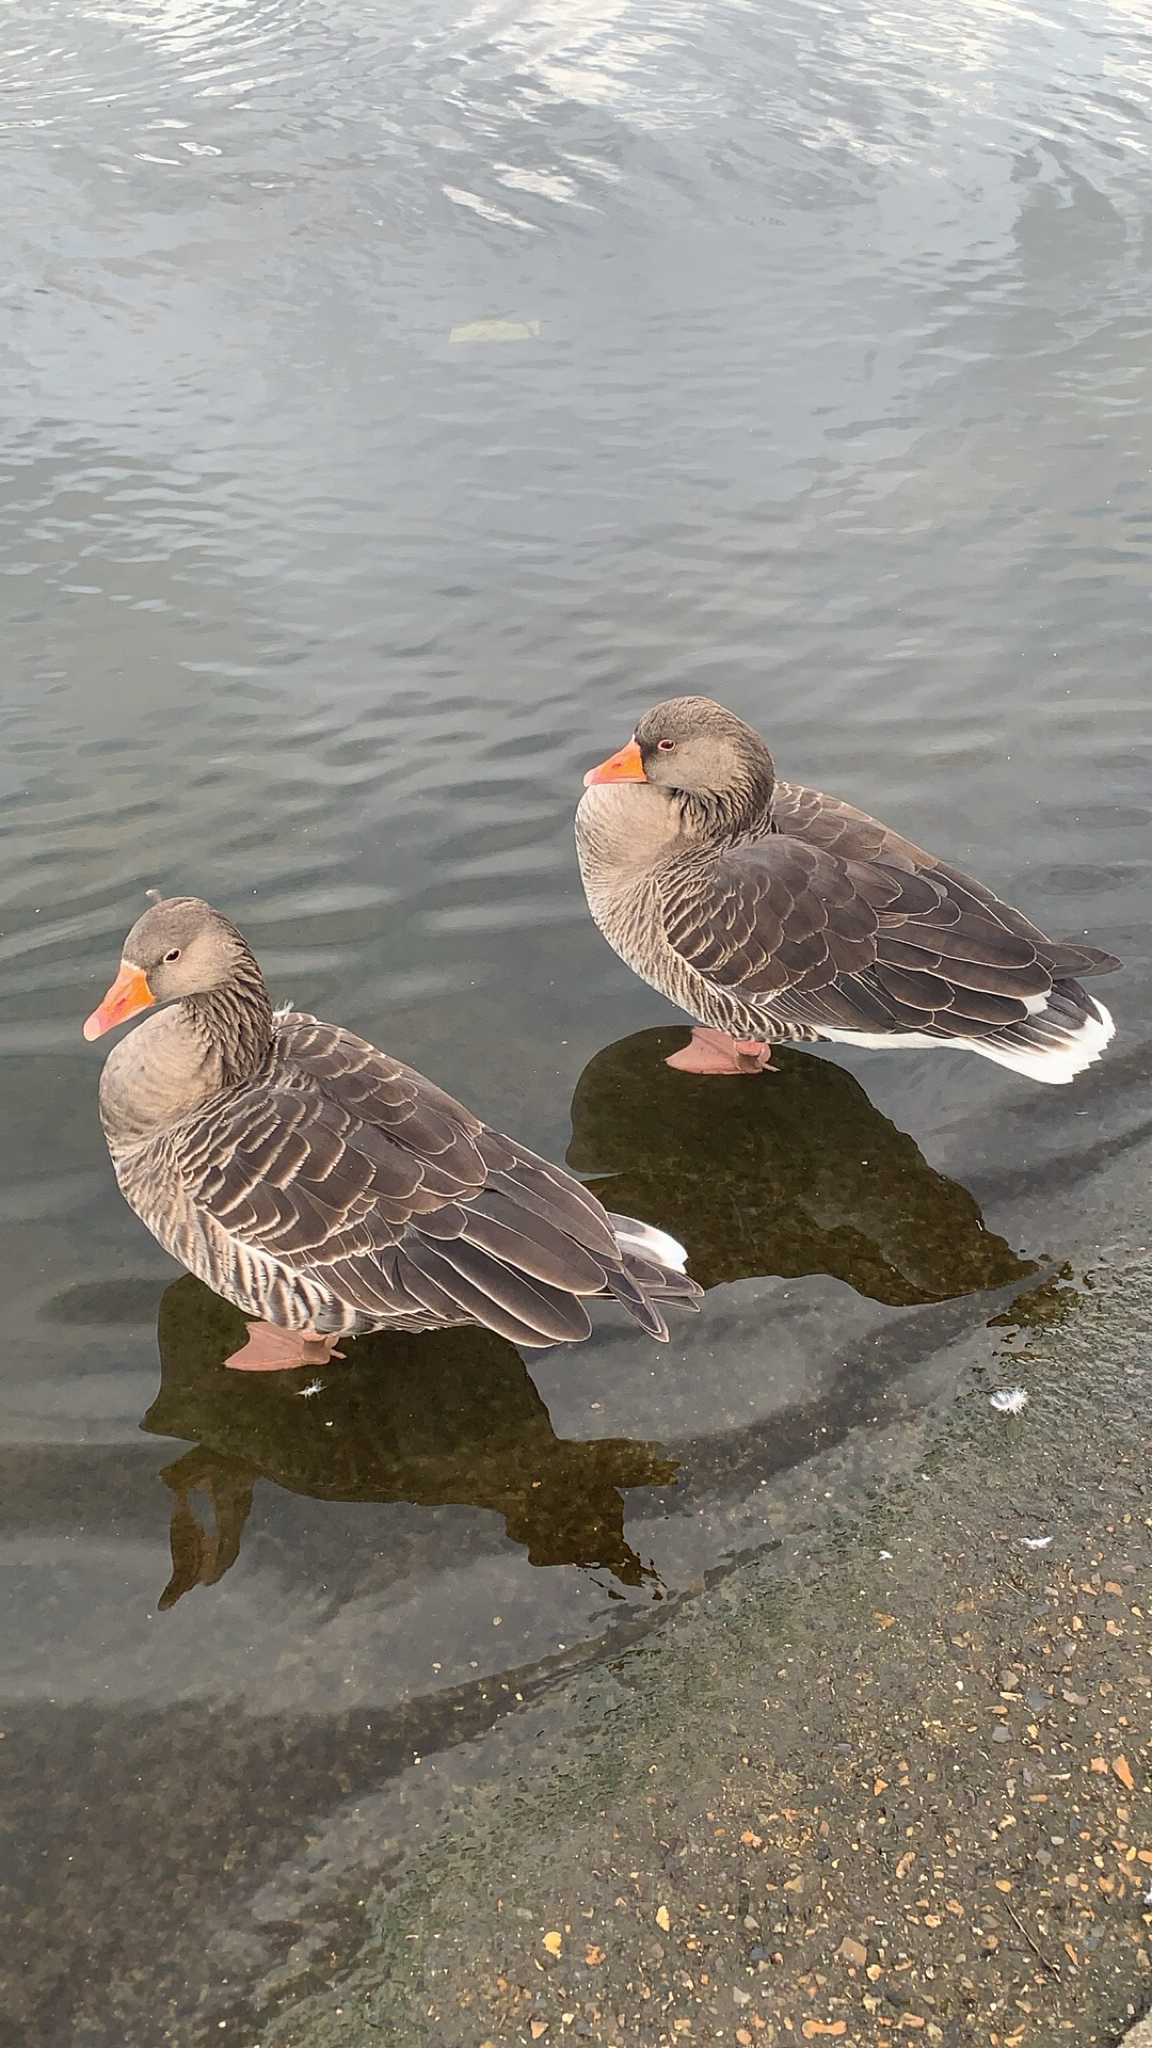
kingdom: Animalia
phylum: Chordata
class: Aves
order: Anseriformes
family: Anatidae
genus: Anser
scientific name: Anser anser
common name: Greylag goose
